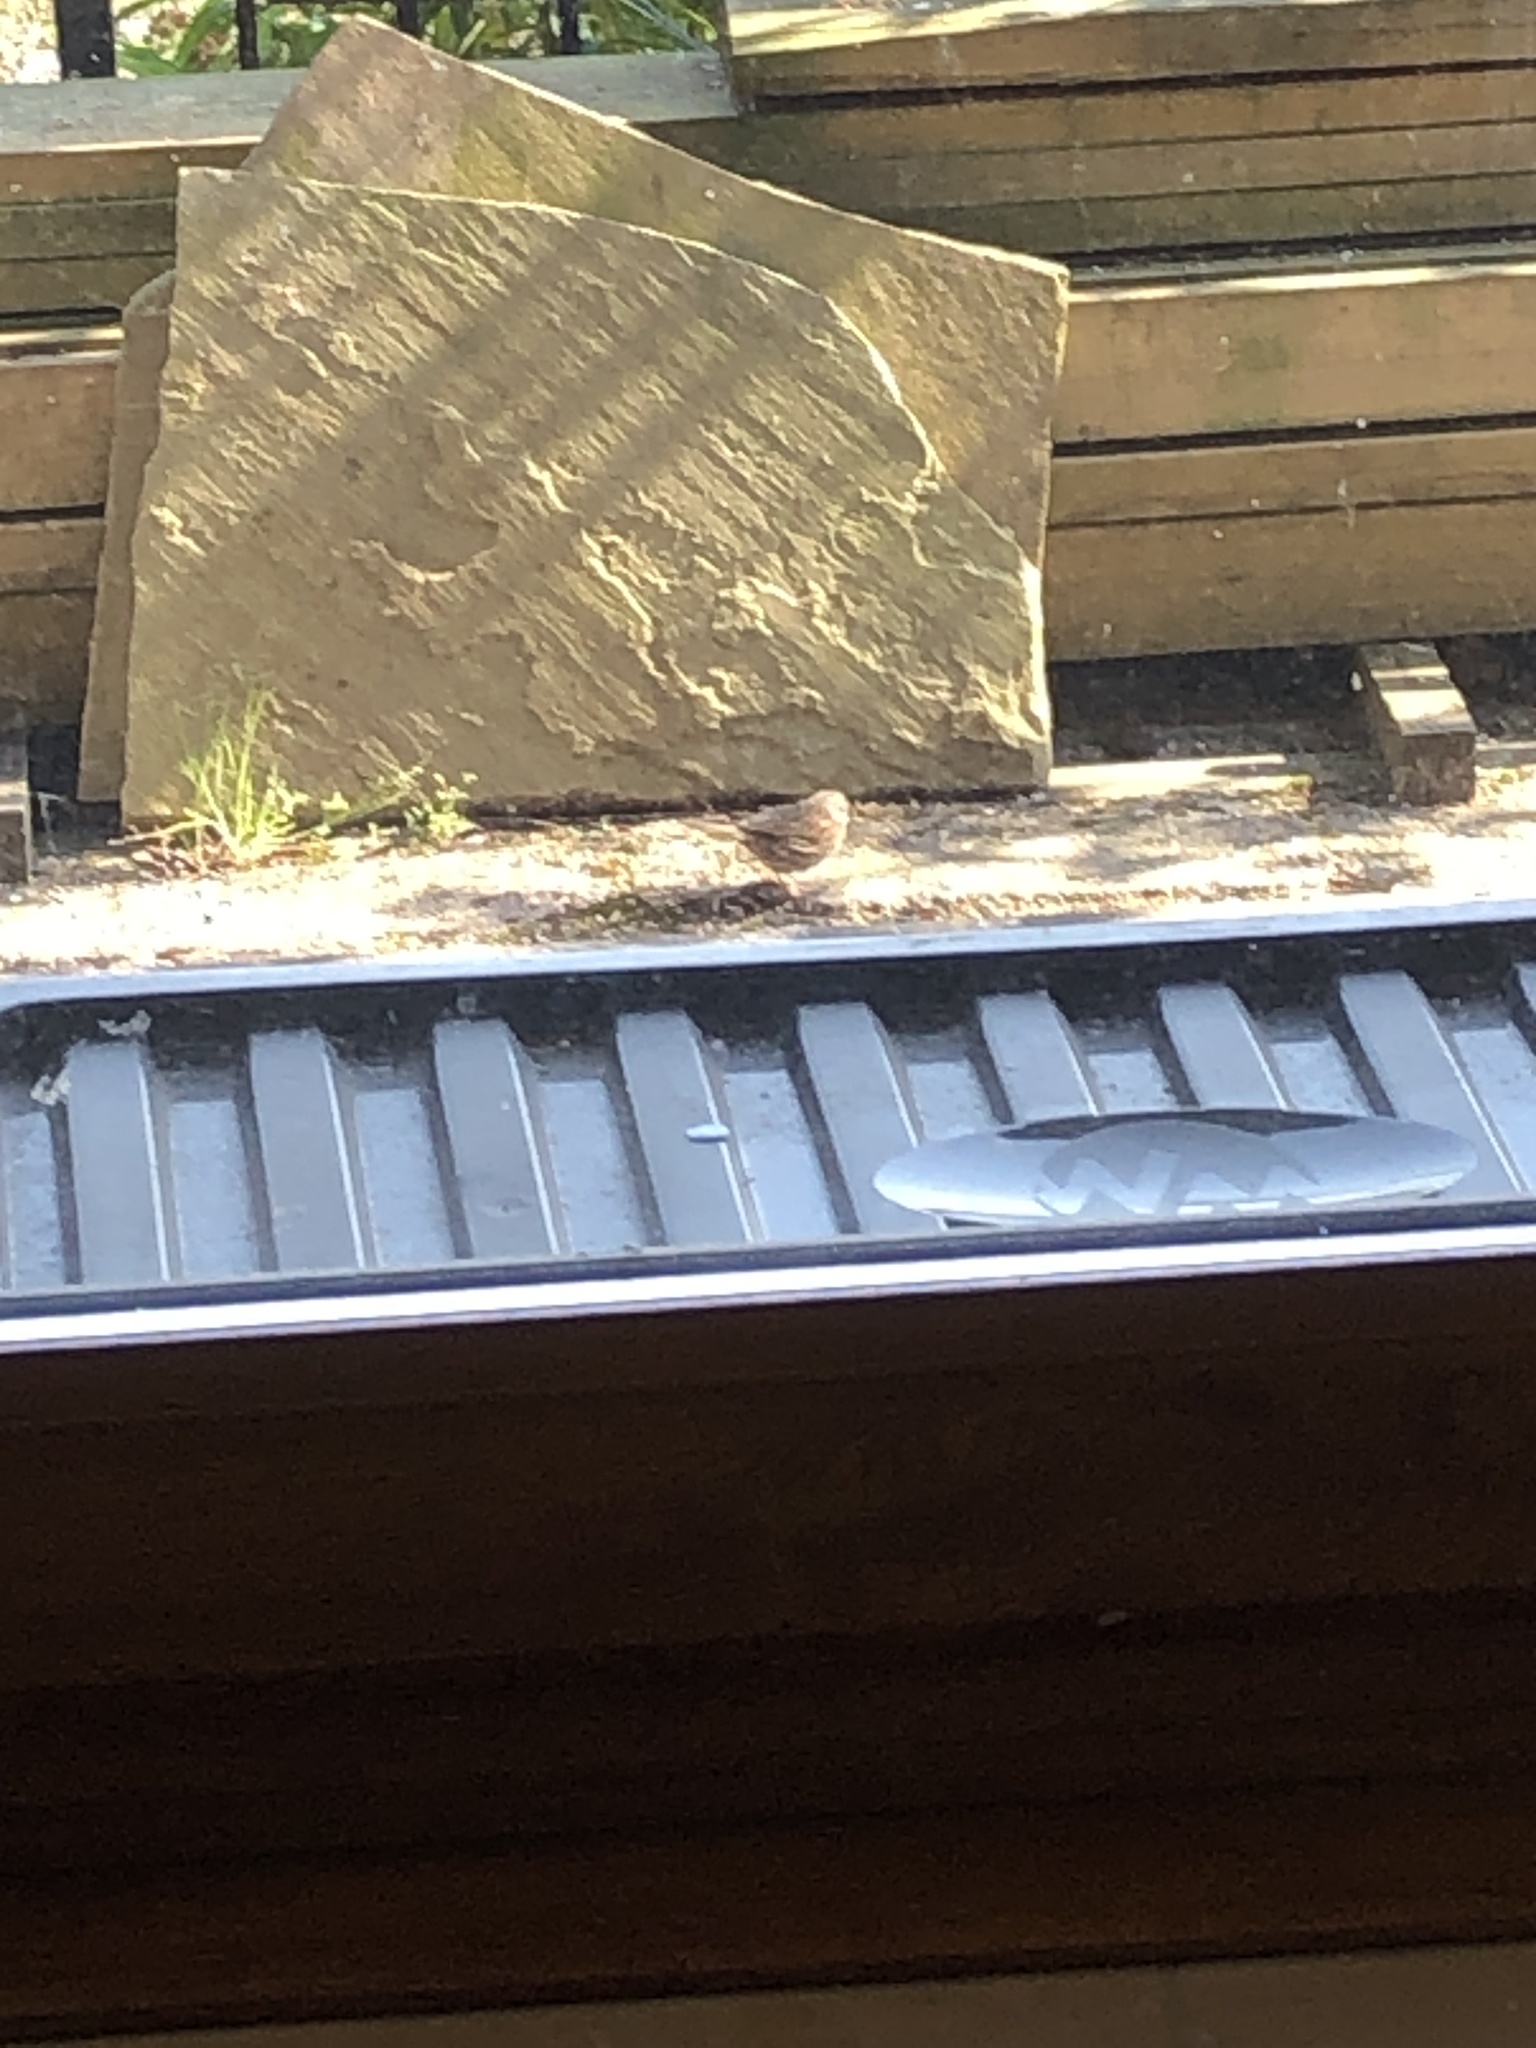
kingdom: Animalia
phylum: Chordata
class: Aves
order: Passeriformes
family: Prunellidae
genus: Prunella
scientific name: Prunella modularis
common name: Dunnock
